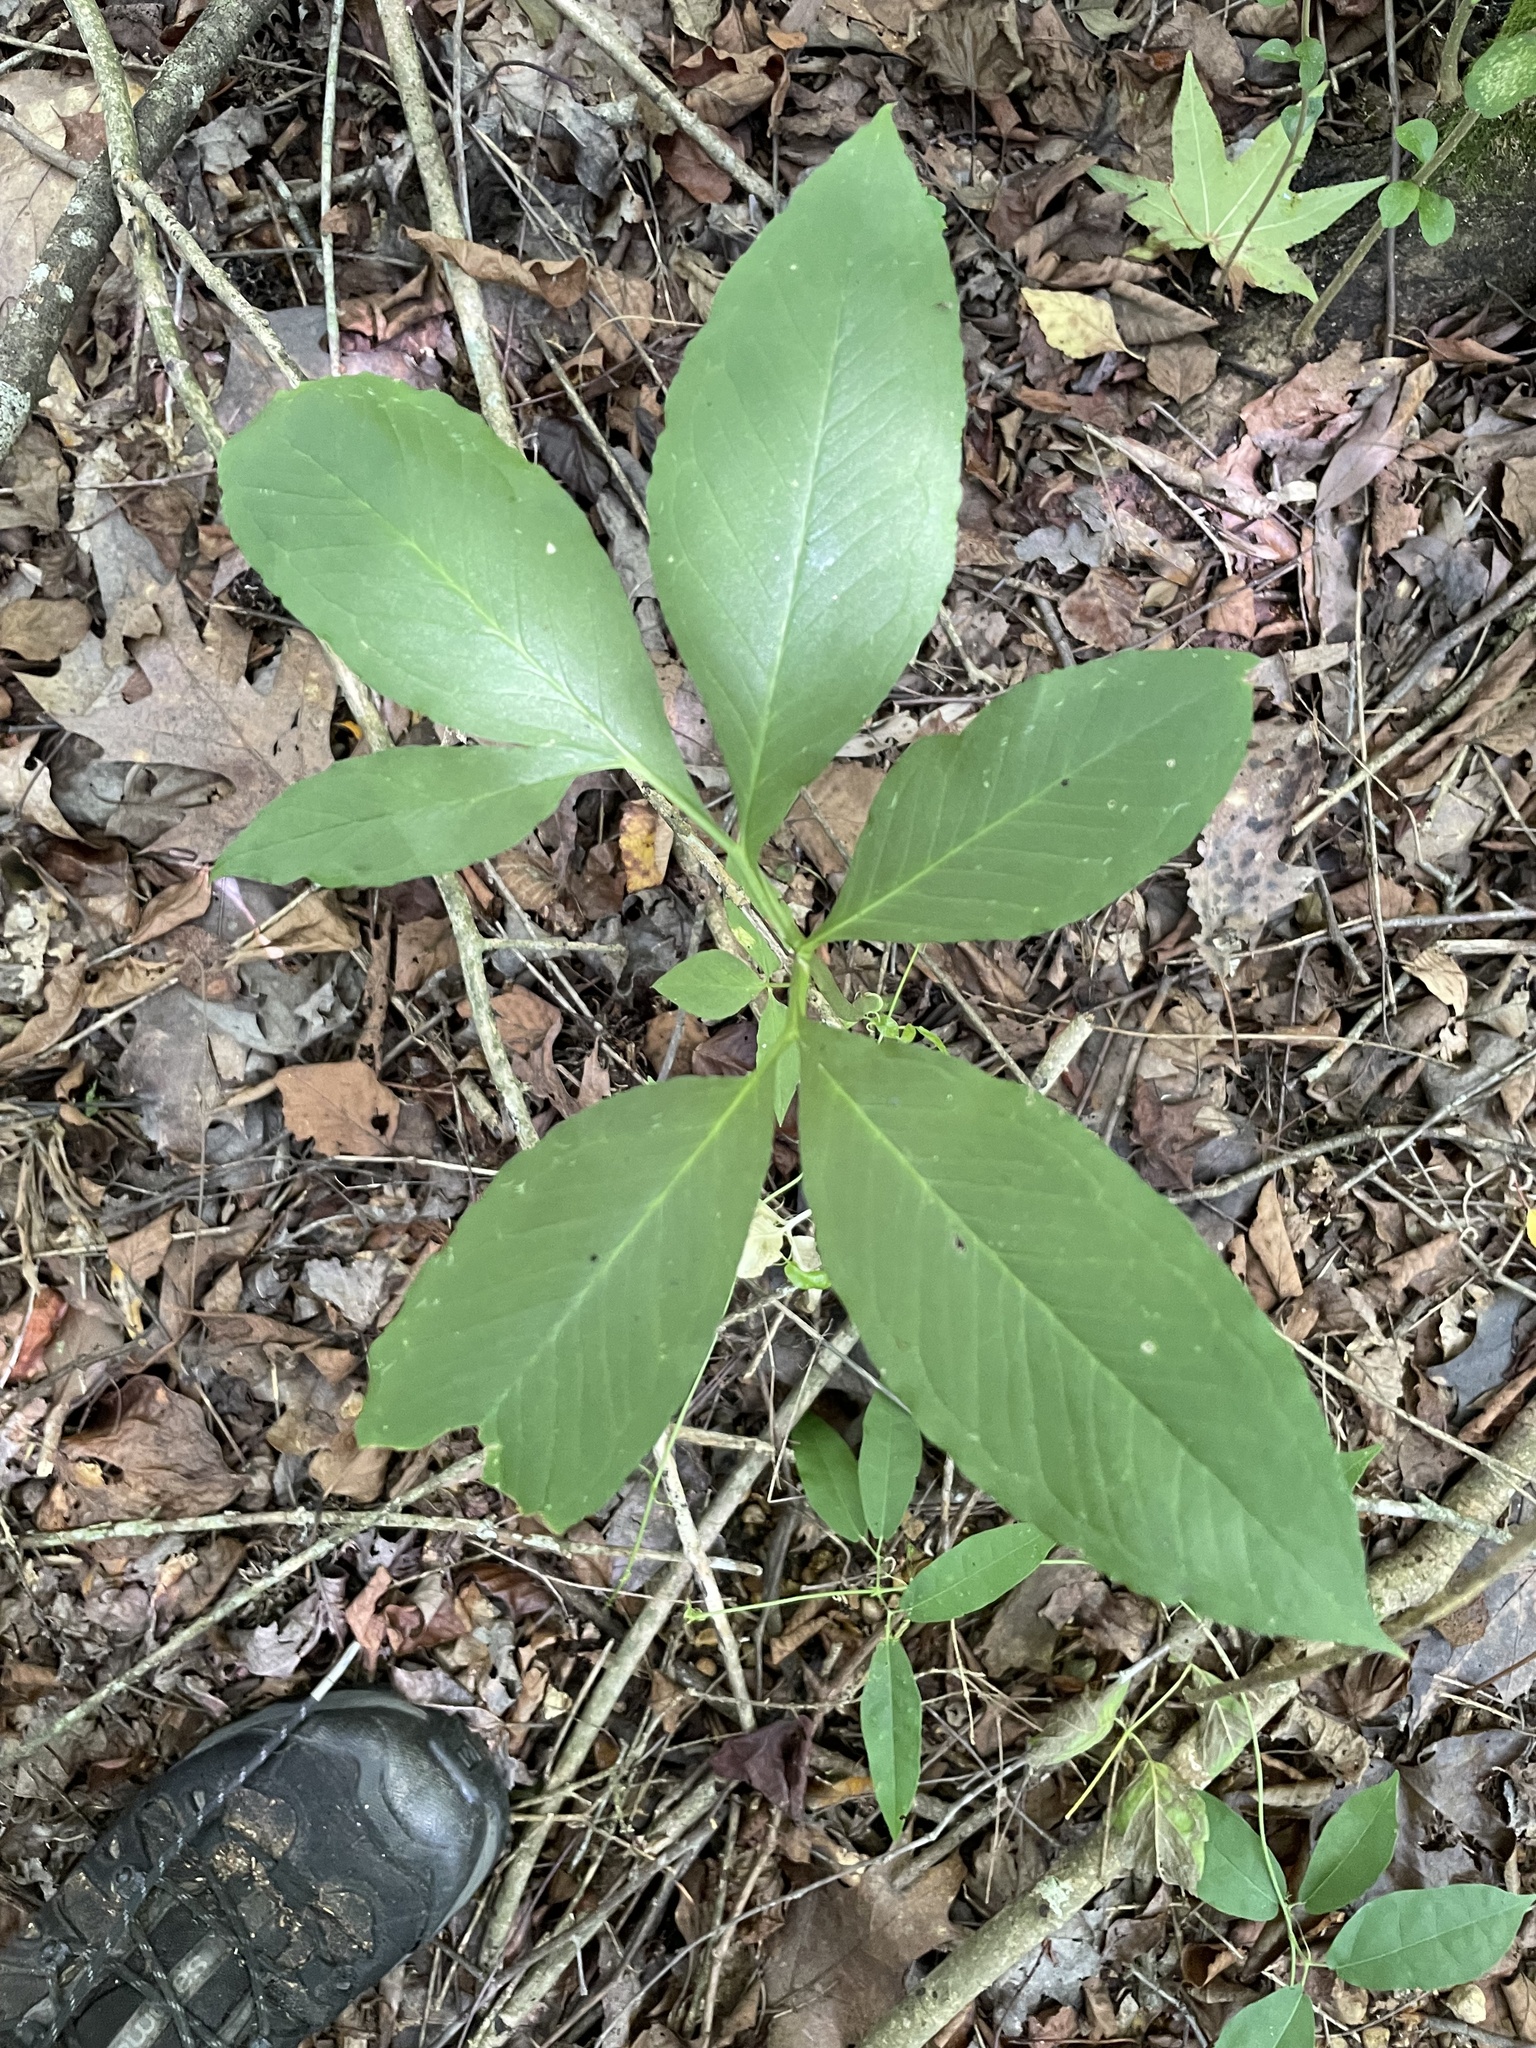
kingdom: Plantae
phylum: Tracheophyta
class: Liliopsida
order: Alismatales
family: Araceae
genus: Arisaema
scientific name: Arisaema dracontium
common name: Dragon-arum
